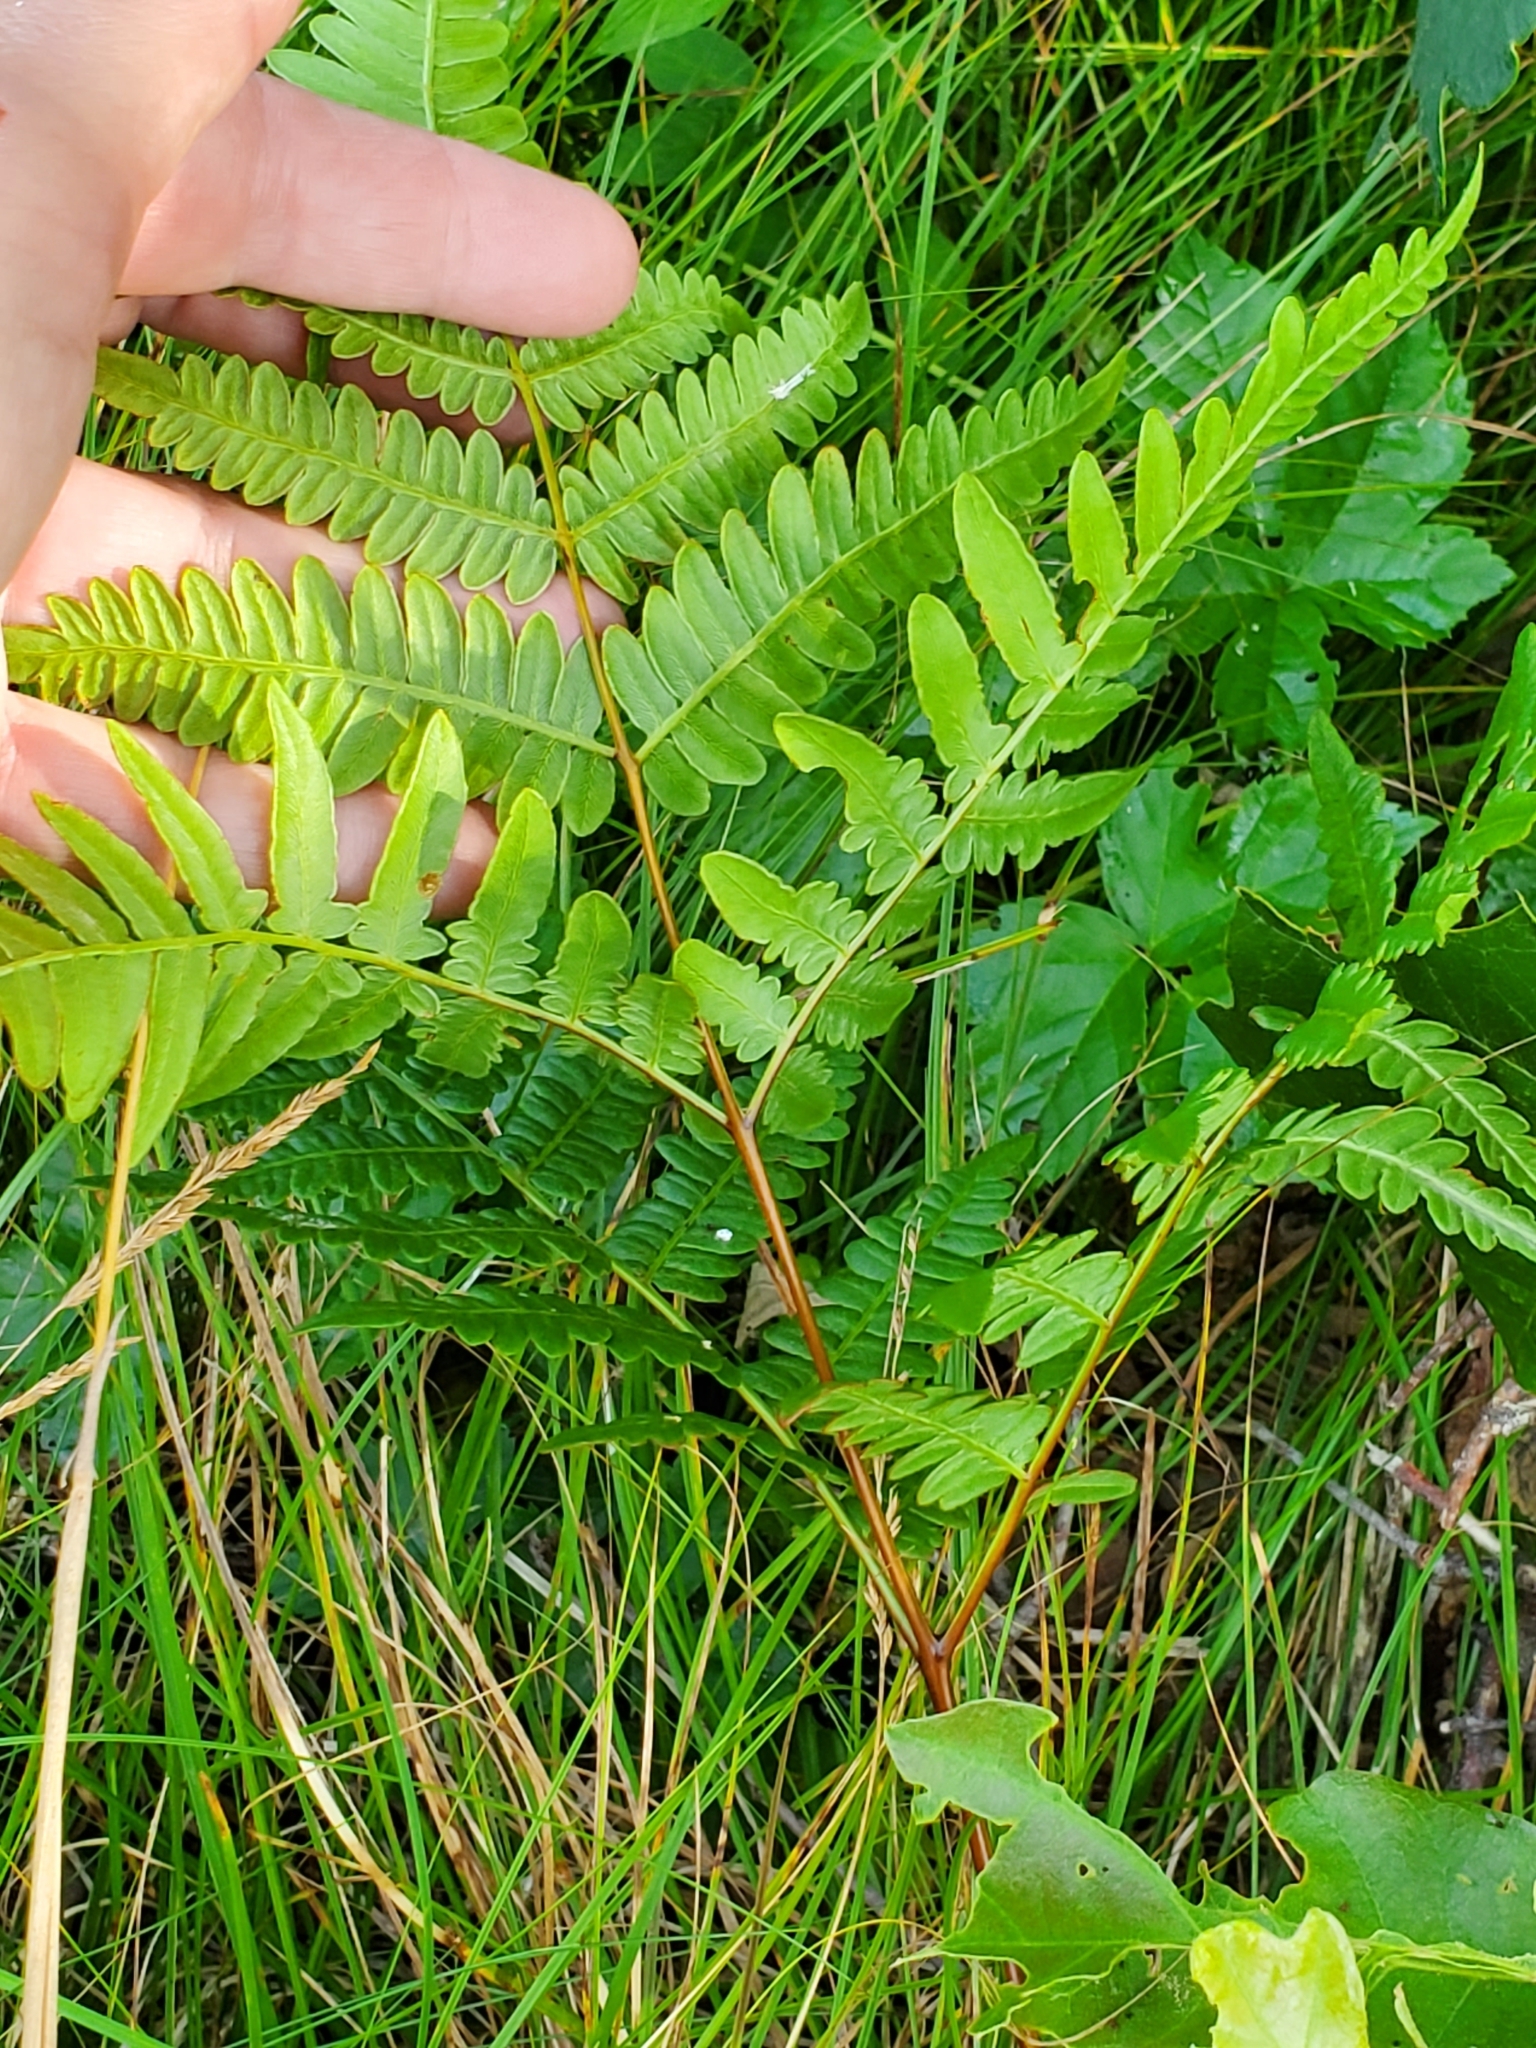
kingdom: Plantae
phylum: Tracheophyta
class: Polypodiopsida
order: Polypodiales
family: Dennstaedtiaceae
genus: Pteridium
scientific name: Pteridium aquilinum
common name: Bracken
